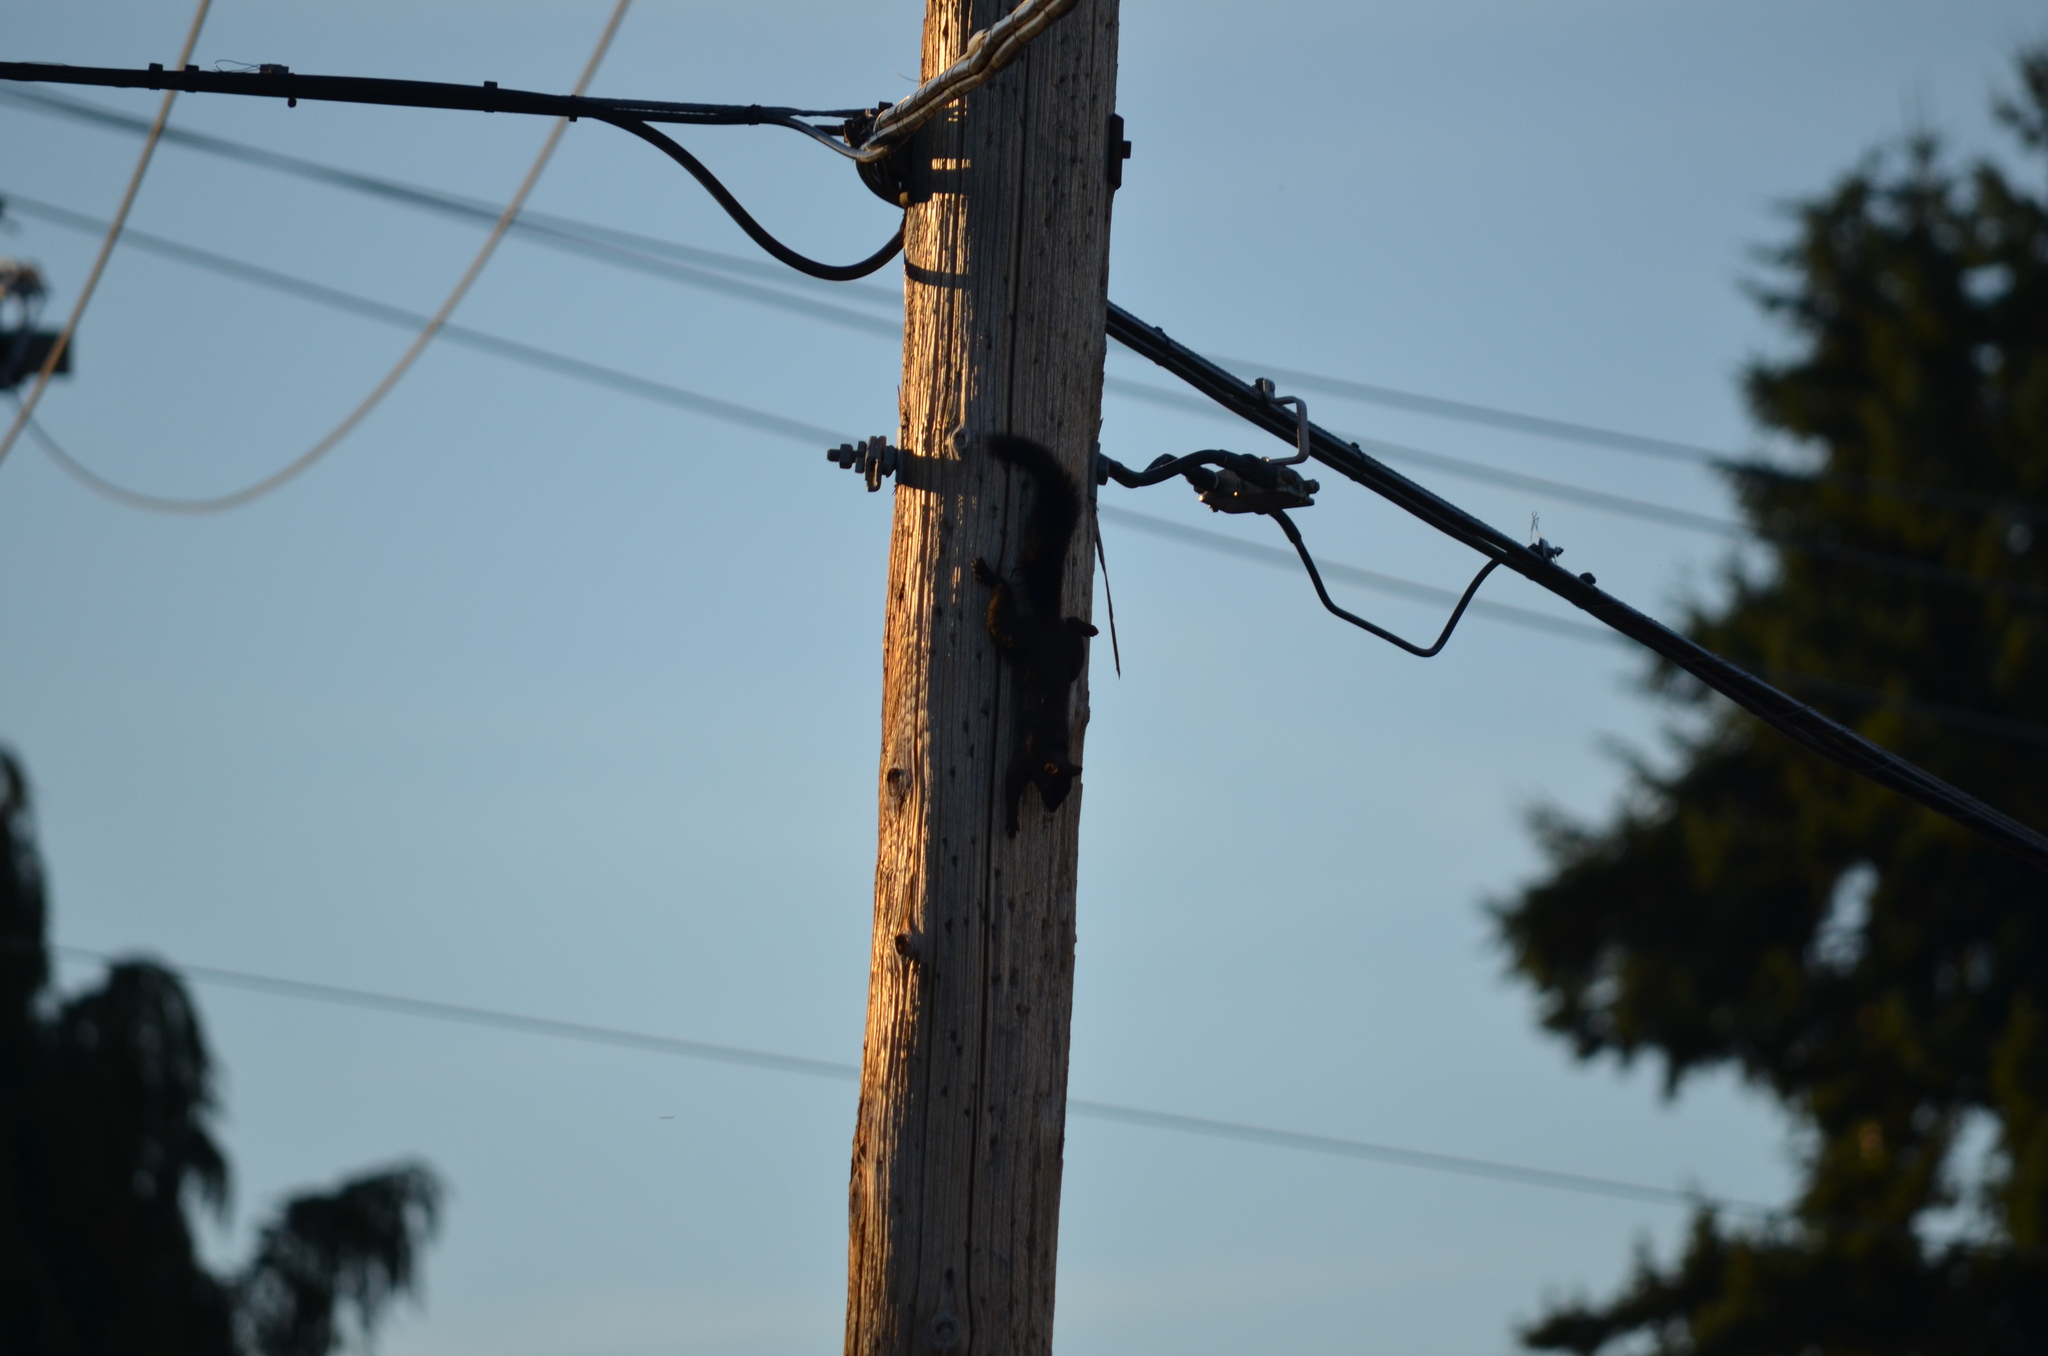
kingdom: Animalia
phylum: Chordata
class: Mammalia
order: Rodentia
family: Sciuridae
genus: Sciurus
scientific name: Sciurus carolinensis
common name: Eastern gray squirrel
